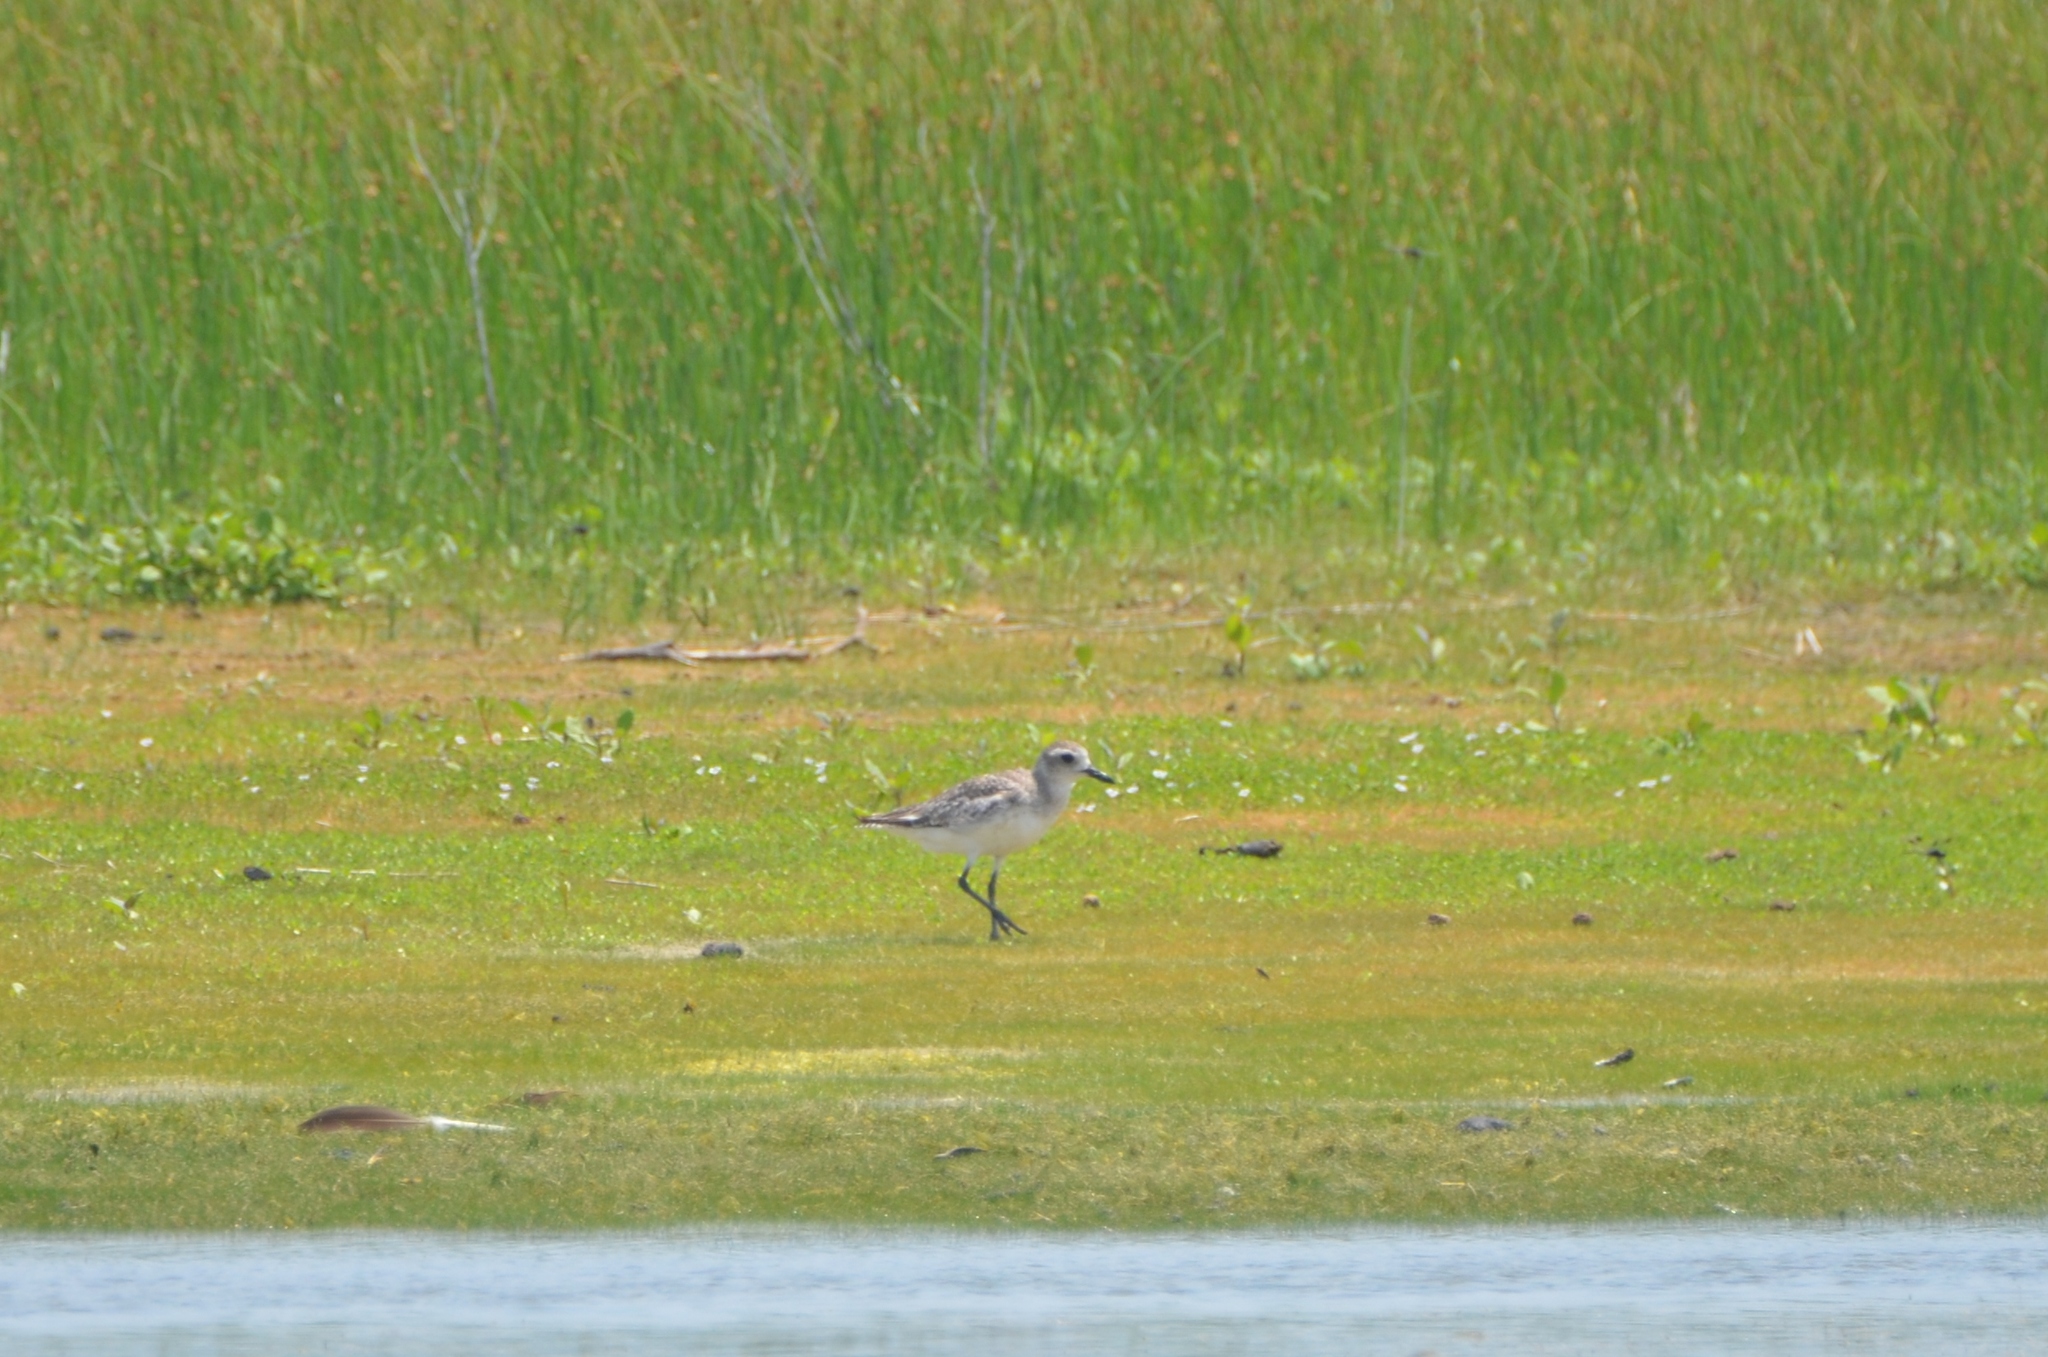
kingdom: Animalia
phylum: Chordata
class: Aves
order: Charadriiformes
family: Charadriidae
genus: Pluvialis
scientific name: Pluvialis squatarola
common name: Grey plover
